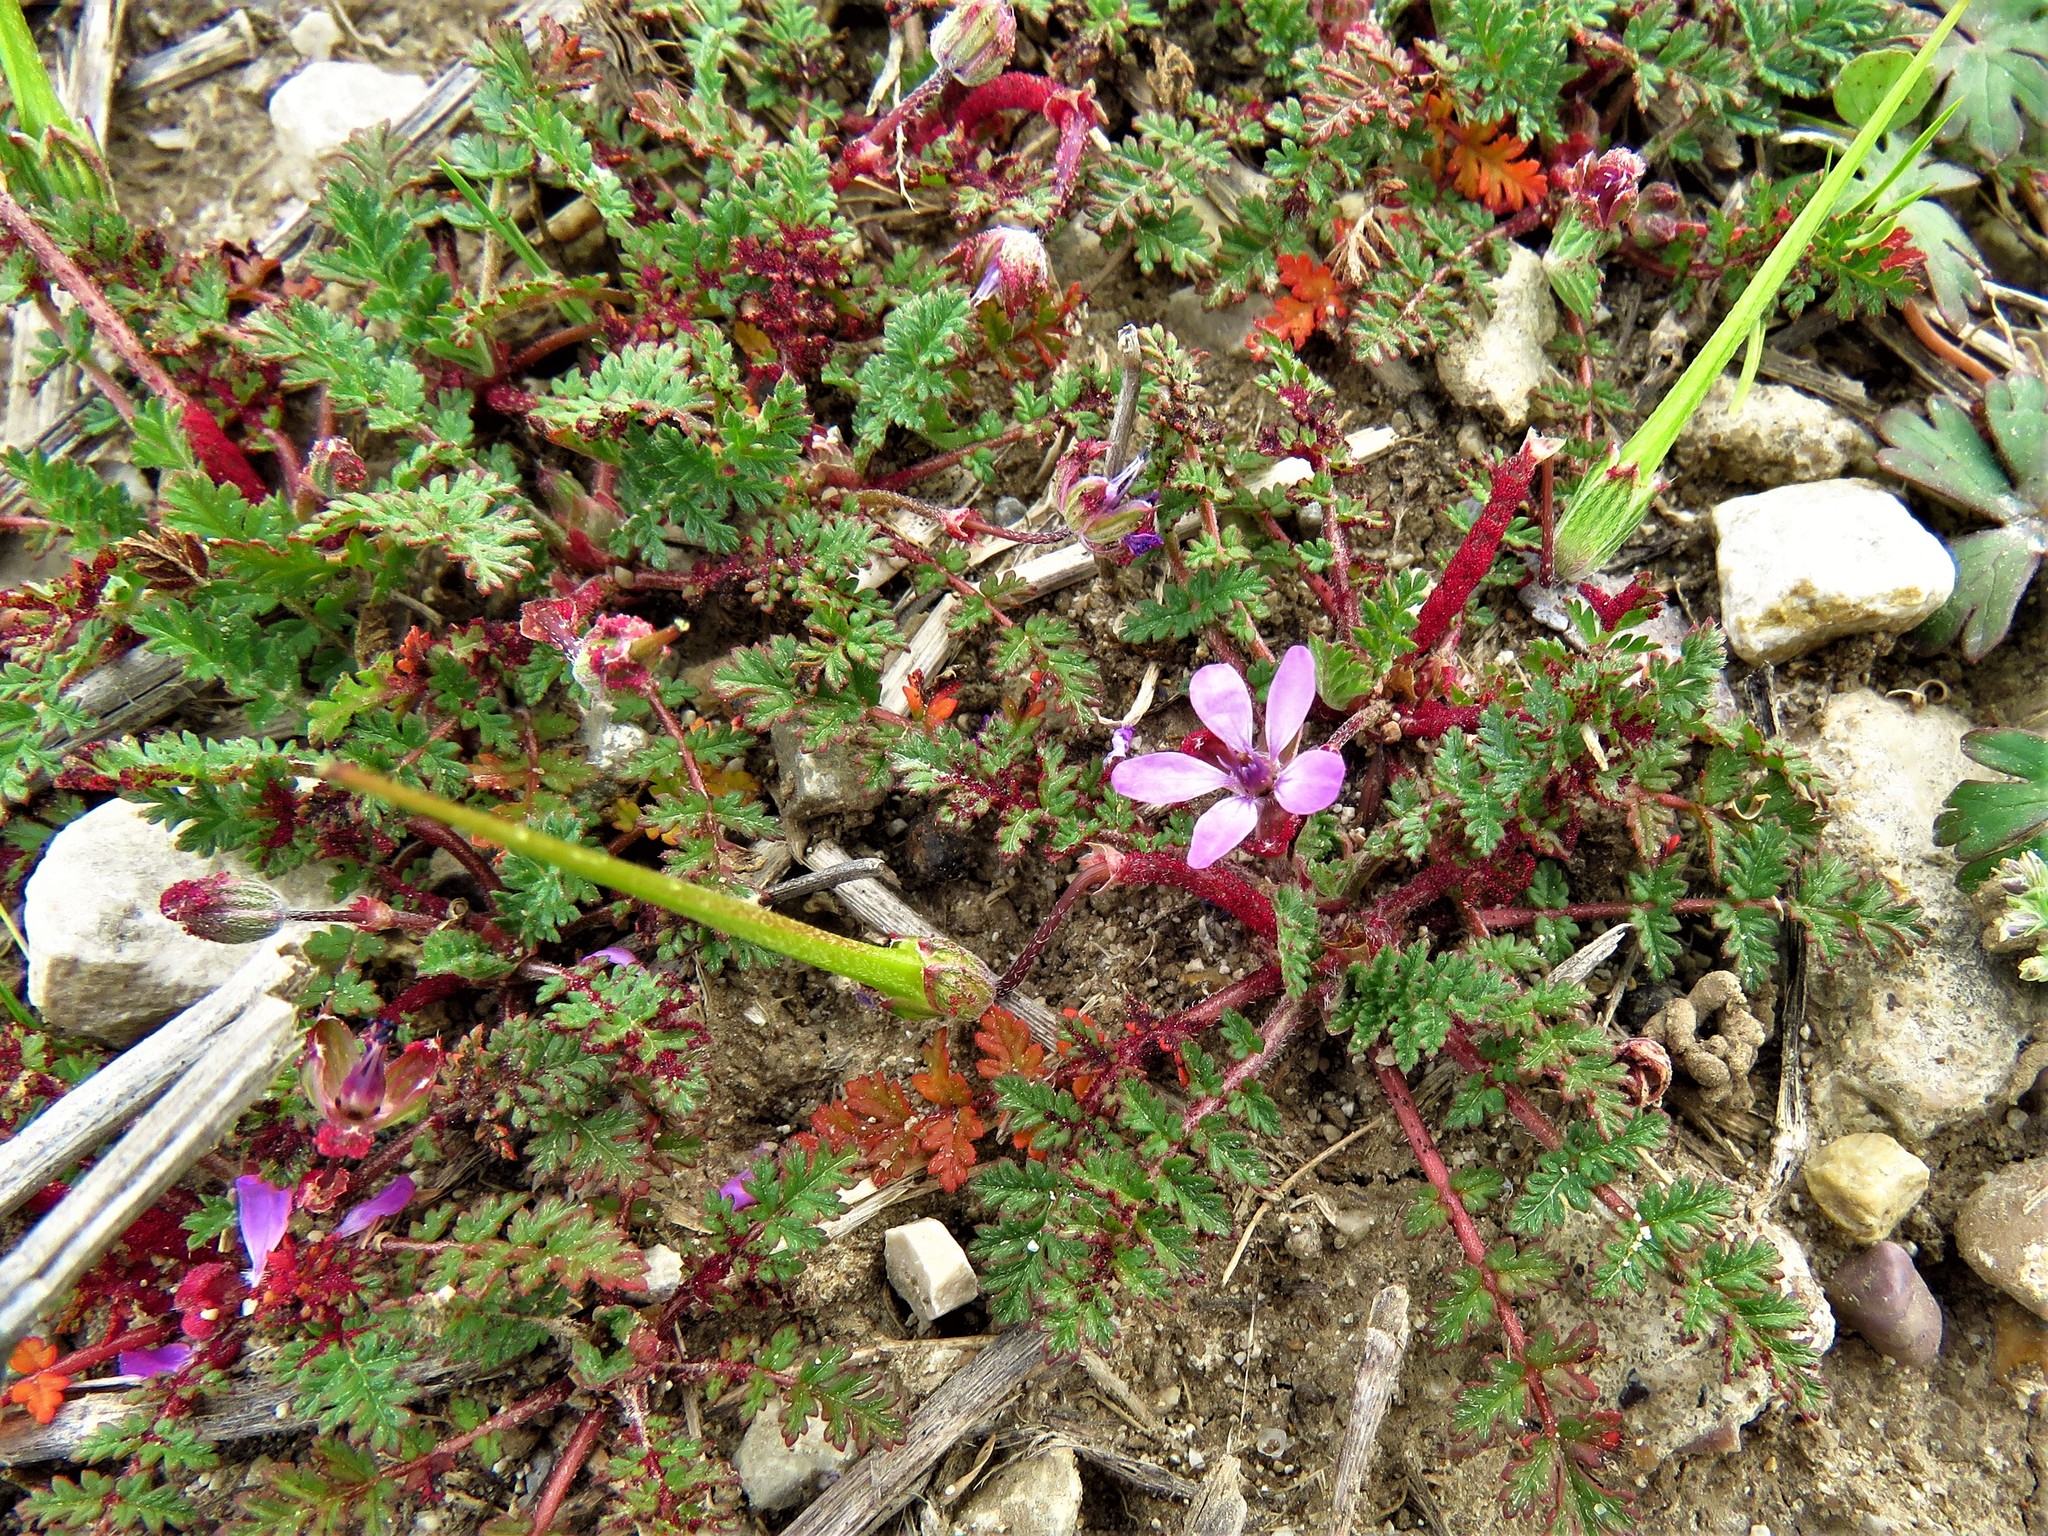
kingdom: Plantae
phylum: Tracheophyta
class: Magnoliopsida
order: Geraniales
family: Geraniaceae
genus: Erodium
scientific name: Erodium cicutarium
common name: Common stork's-bill
